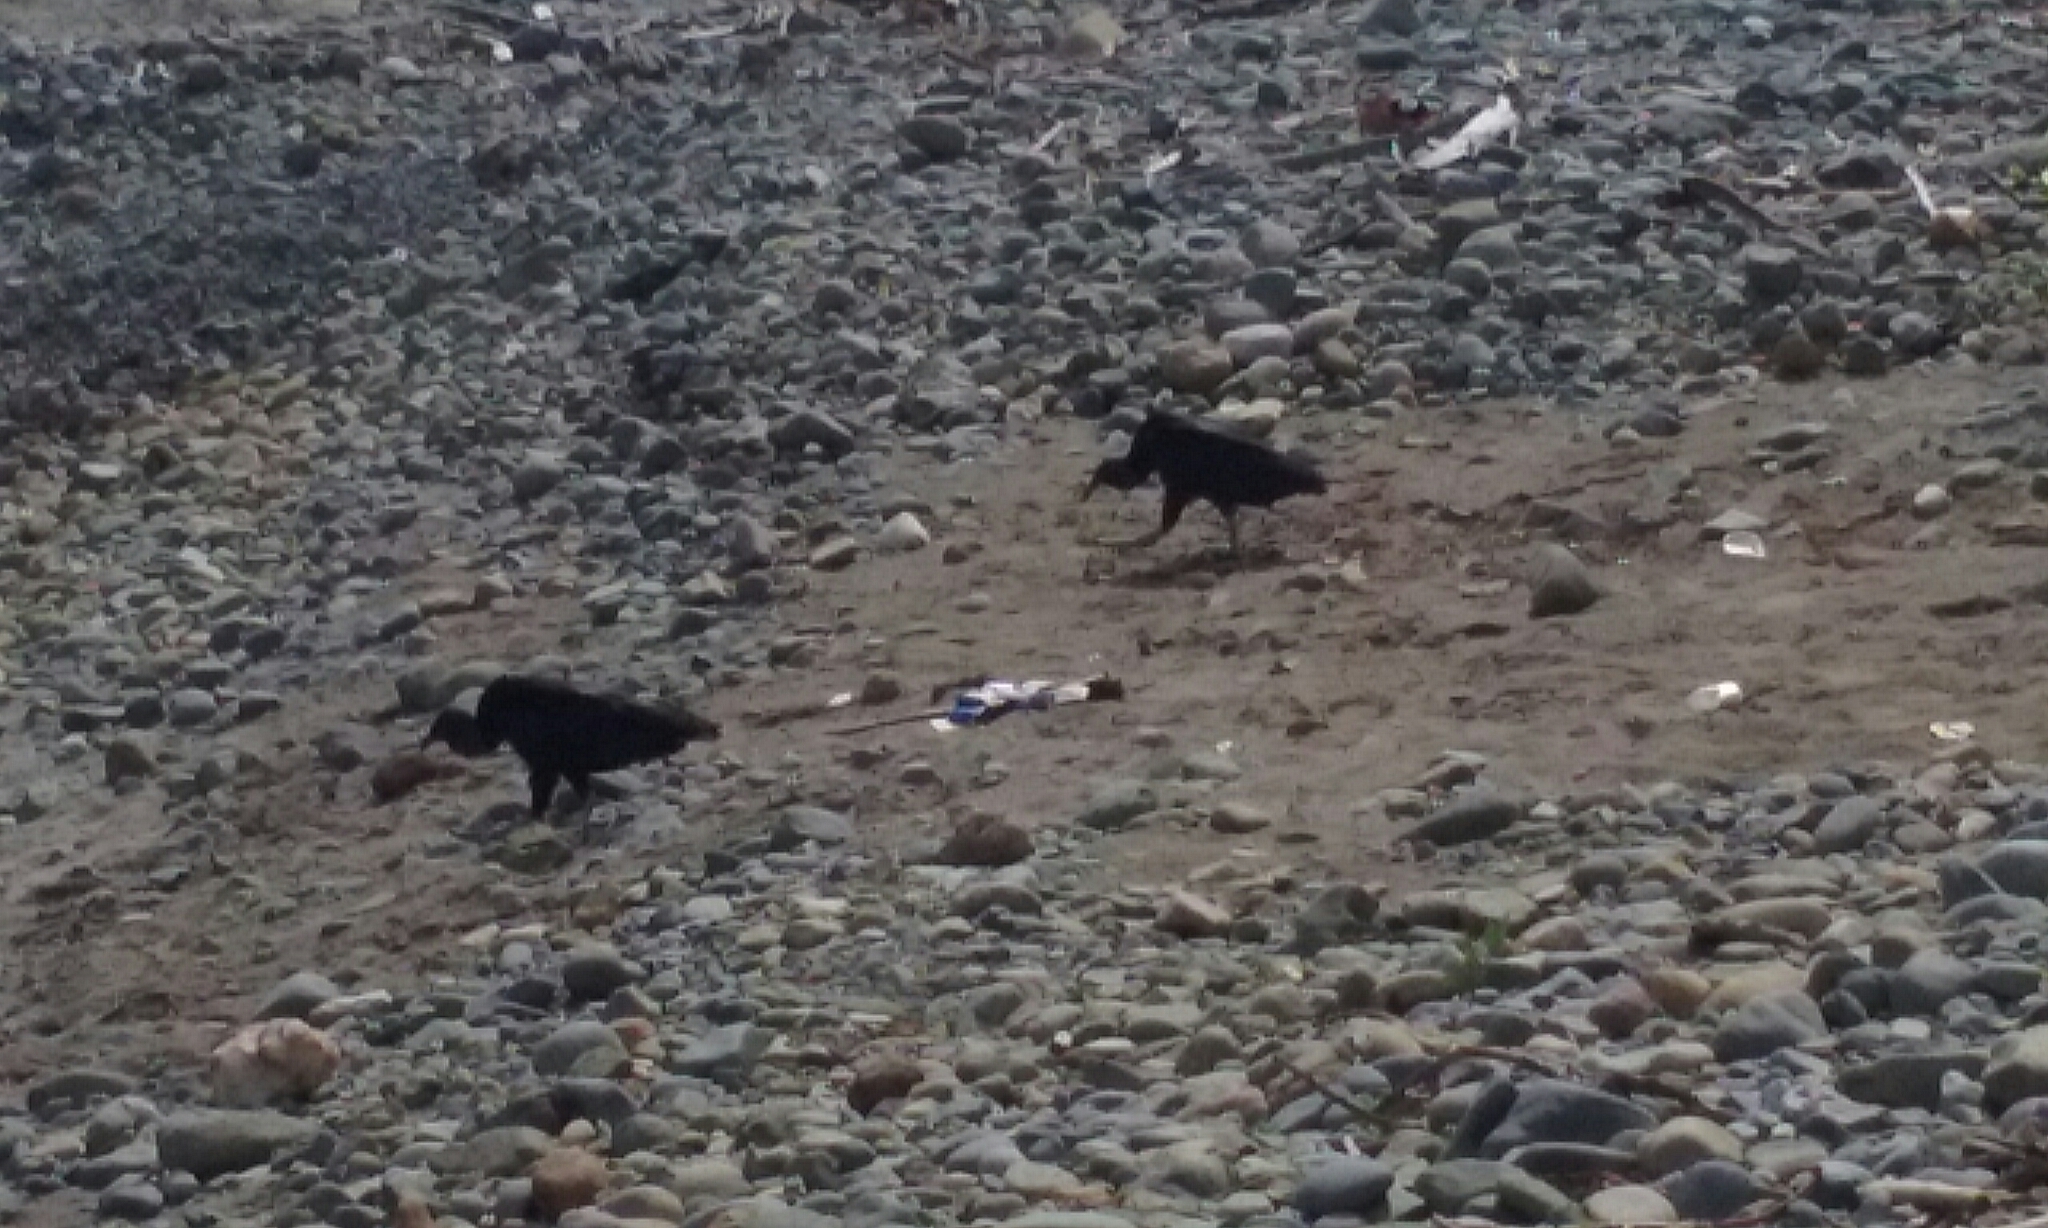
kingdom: Animalia
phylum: Chordata
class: Aves
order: Accipitriformes
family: Cathartidae
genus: Coragyps
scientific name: Coragyps atratus
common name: Black vulture
